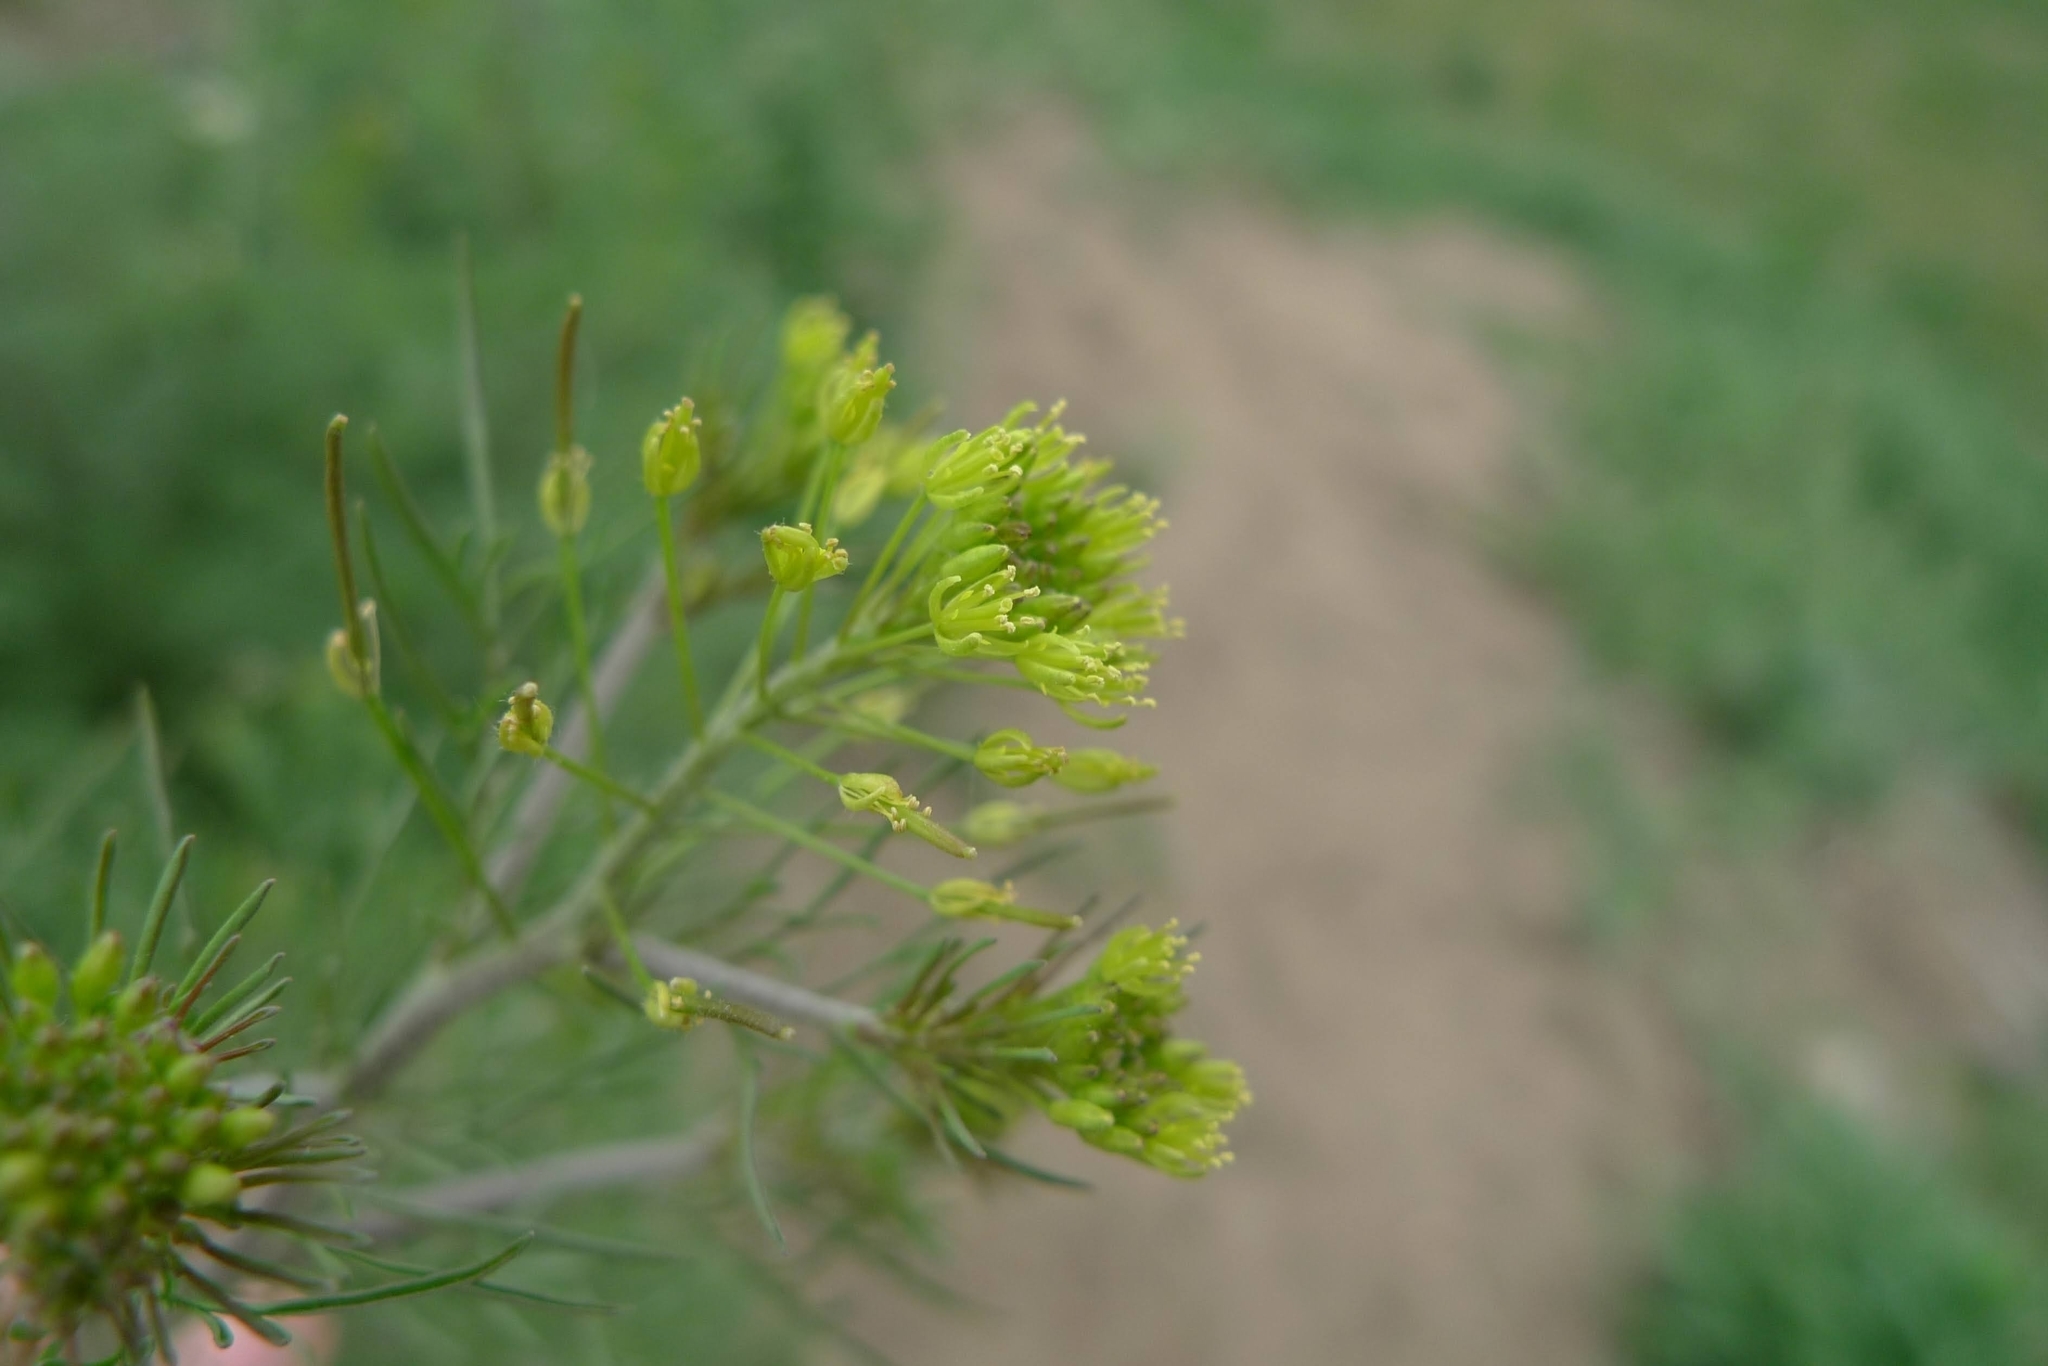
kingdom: Plantae
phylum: Tracheophyta
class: Magnoliopsida
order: Brassicales
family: Brassicaceae
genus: Descurainia
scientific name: Descurainia sophia
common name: Flixweed
